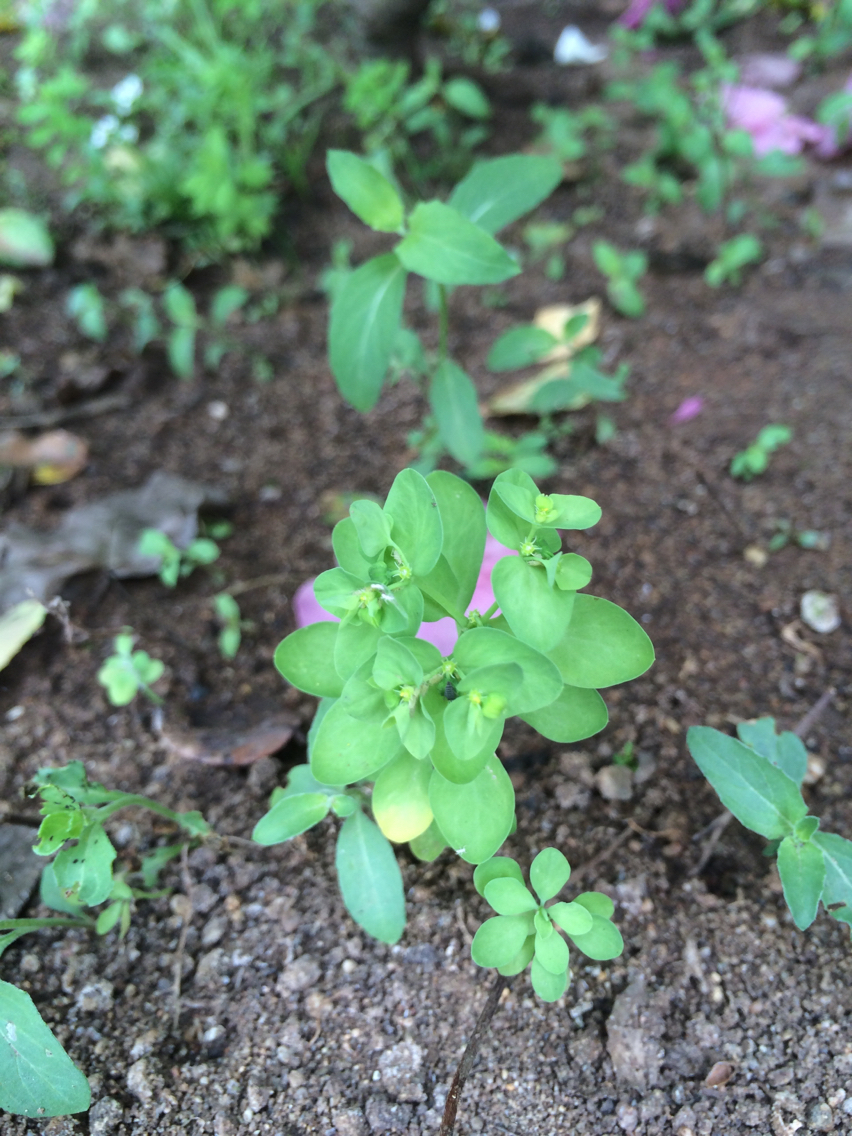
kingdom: Plantae
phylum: Tracheophyta
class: Magnoliopsida
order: Malpighiales
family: Euphorbiaceae
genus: Euphorbia
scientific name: Euphorbia peplus
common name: Petty spurge
